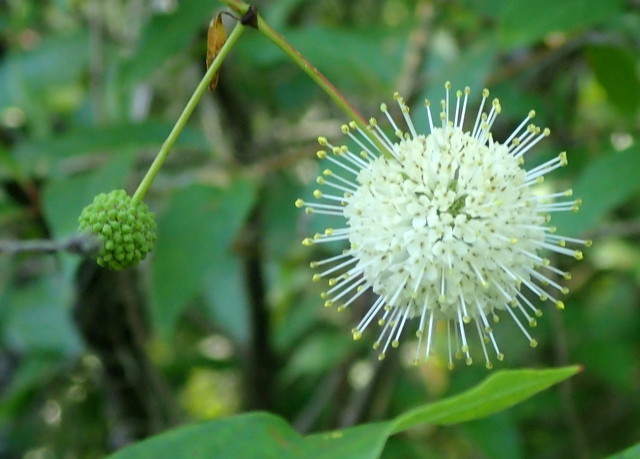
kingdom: Plantae
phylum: Tracheophyta
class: Magnoliopsida
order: Gentianales
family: Rubiaceae
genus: Cephalanthus
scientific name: Cephalanthus occidentalis
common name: Button-willow
